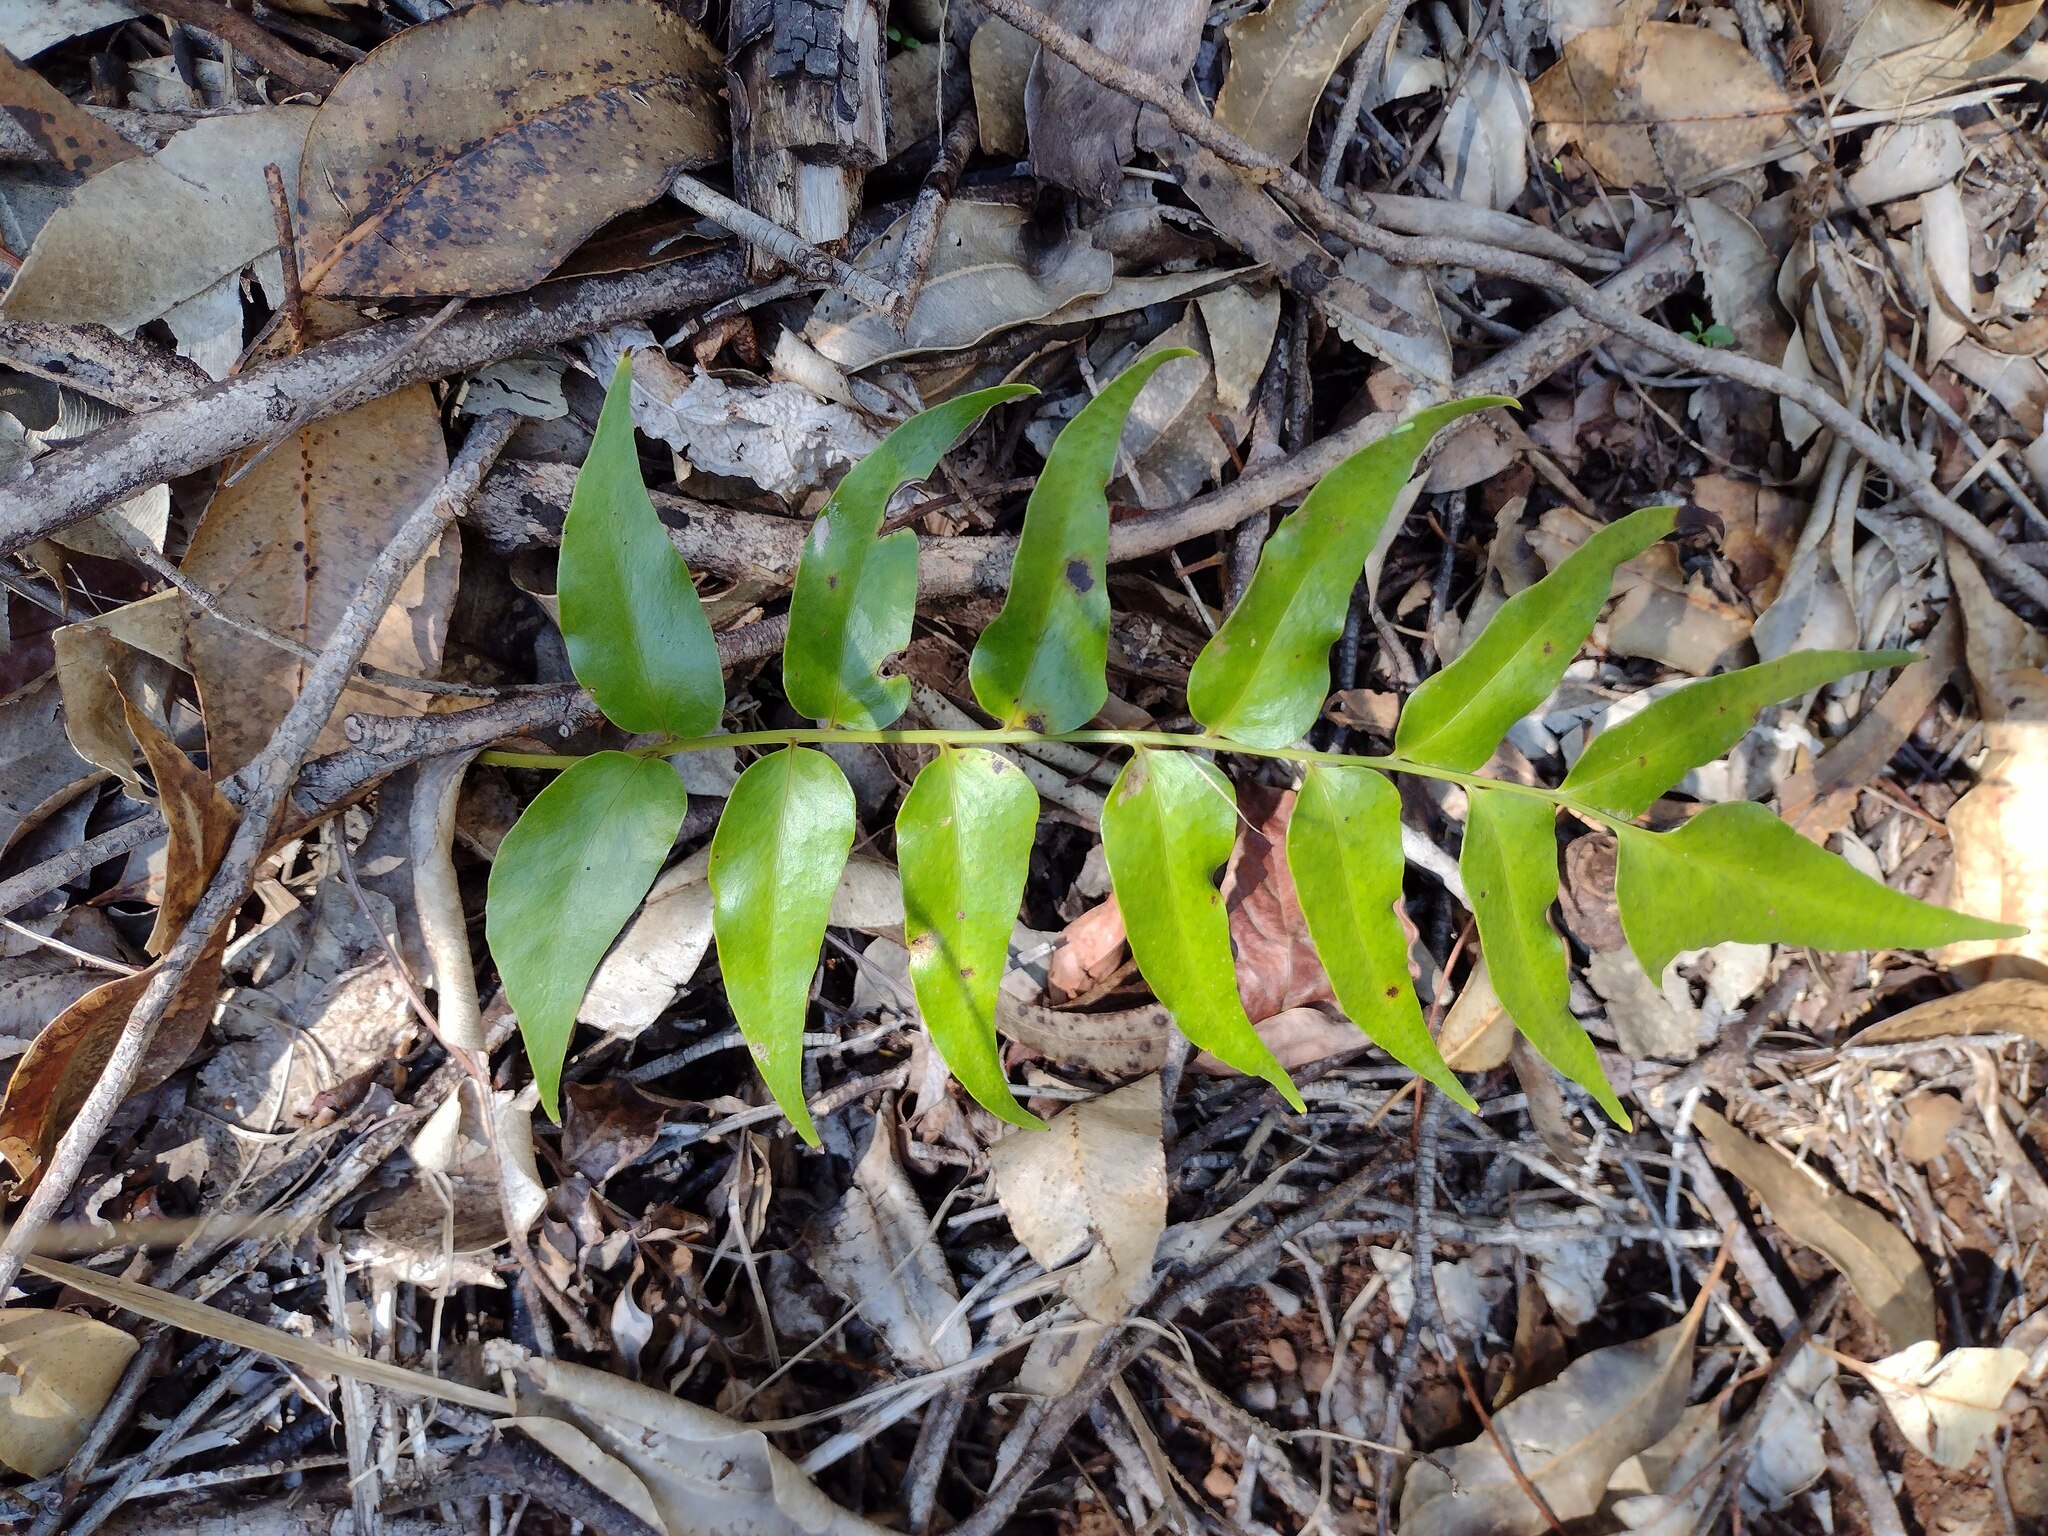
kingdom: Plantae
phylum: Tracheophyta
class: Polypodiopsida
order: Polypodiales
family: Dryopteridaceae
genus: Cyrtomium
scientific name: Cyrtomium falcatum
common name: House holly-fern
